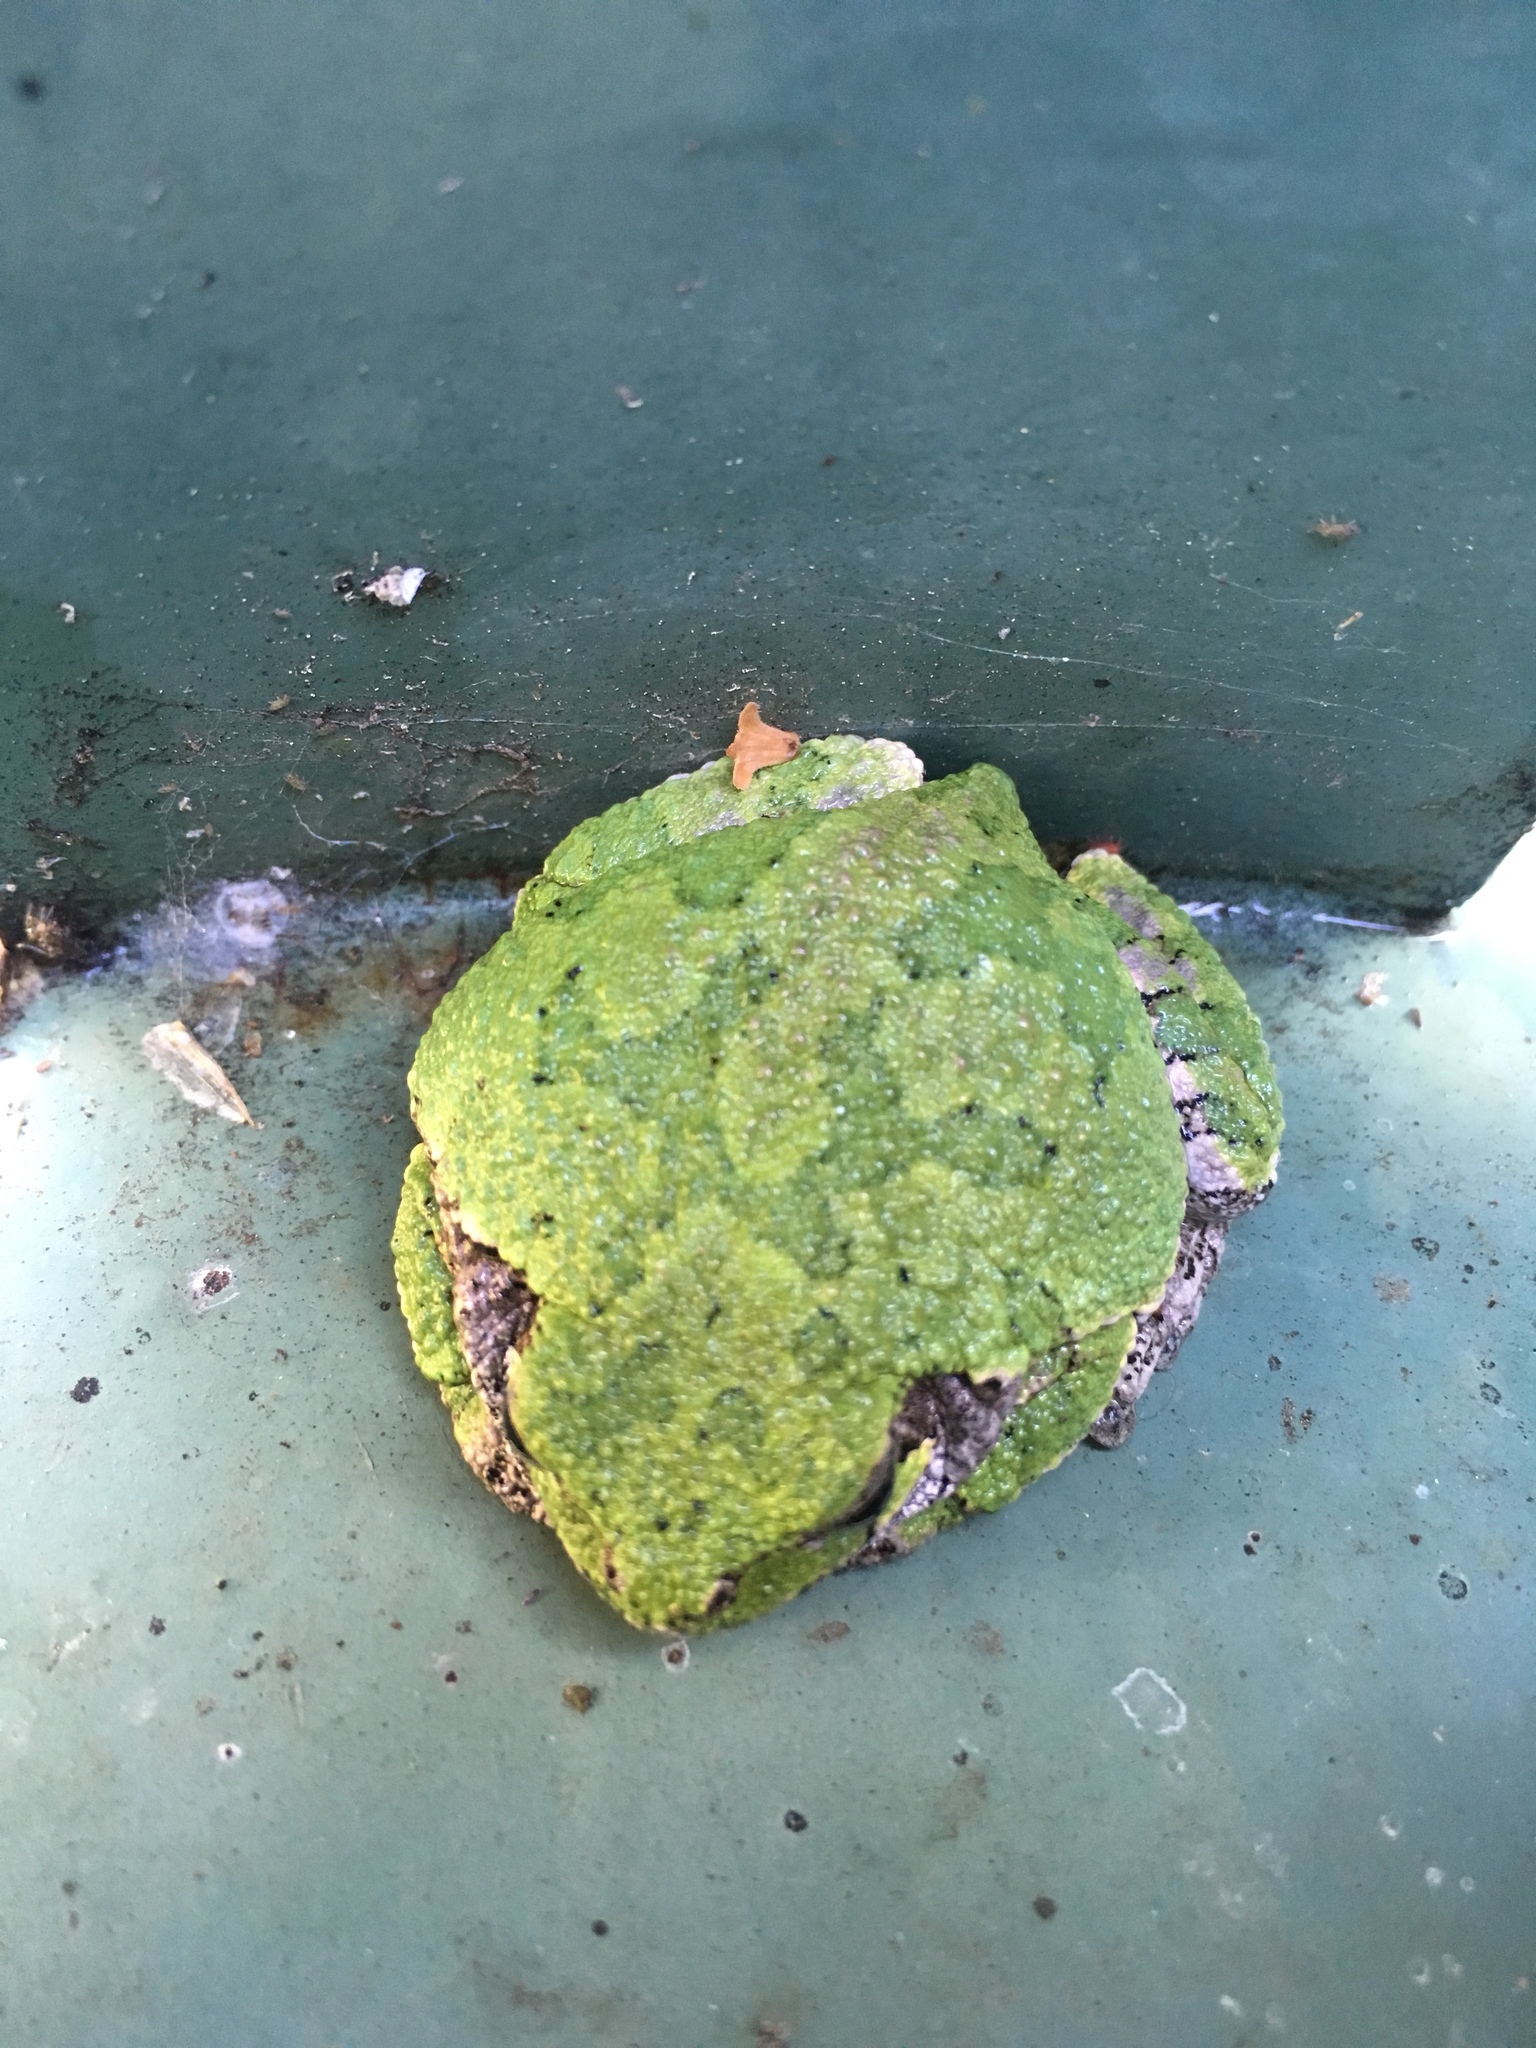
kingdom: Animalia
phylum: Chordata
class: Amphibia
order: Anura
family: Hylidae
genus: Dryophytes
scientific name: Dryophytes versicolor
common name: Gray treefrog
